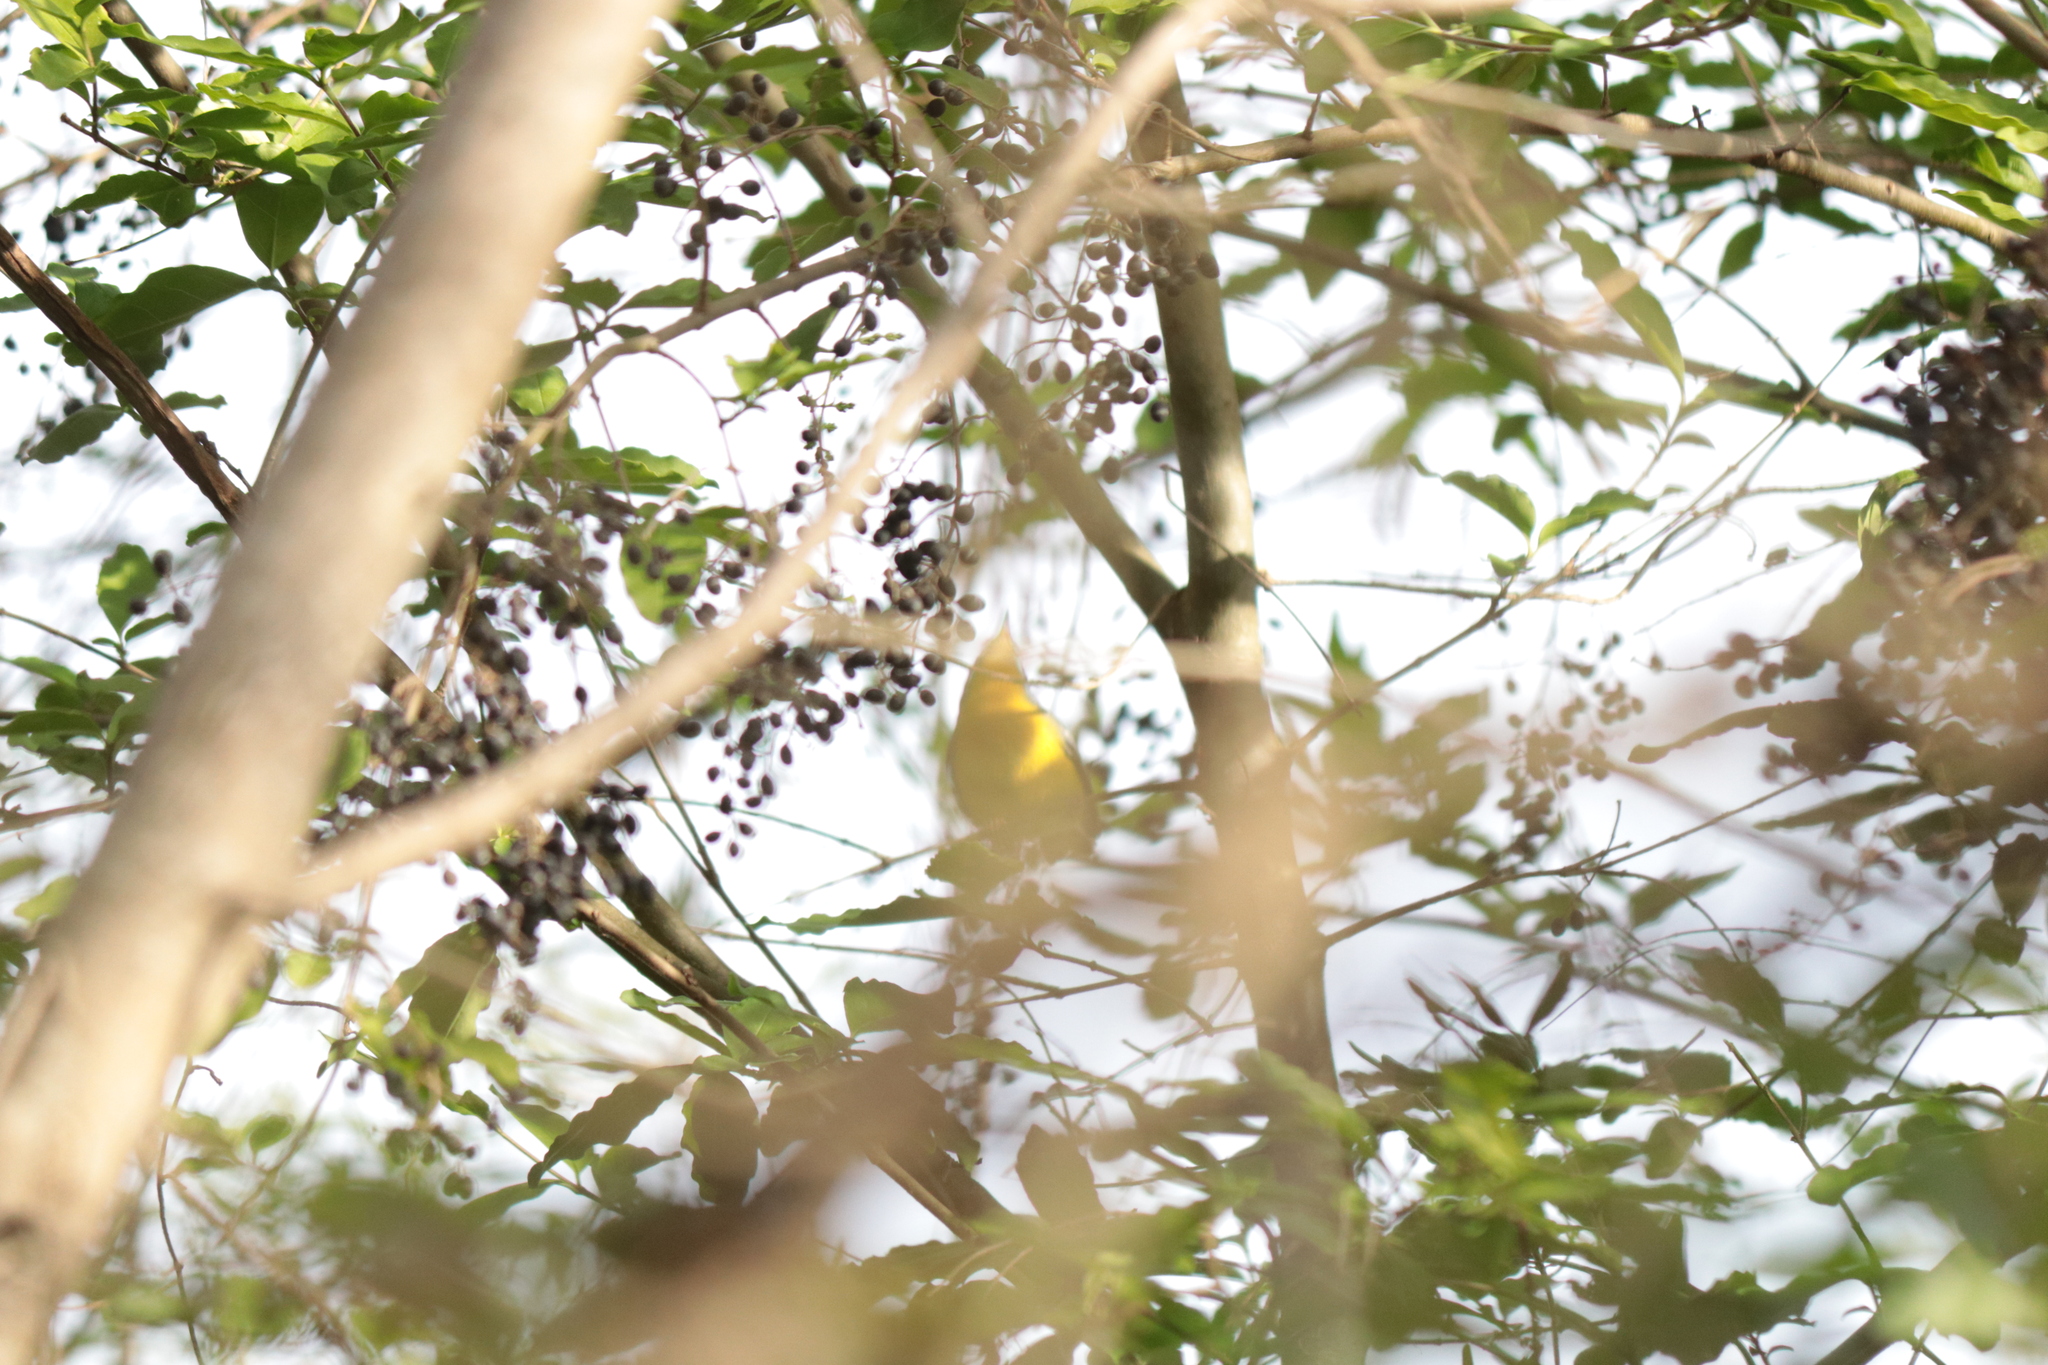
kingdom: Animalia
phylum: Chordata
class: Aves
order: Passeriformes
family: Parulidae
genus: Setophaga
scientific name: Setophaga pitiayumi
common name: Tropical parula
